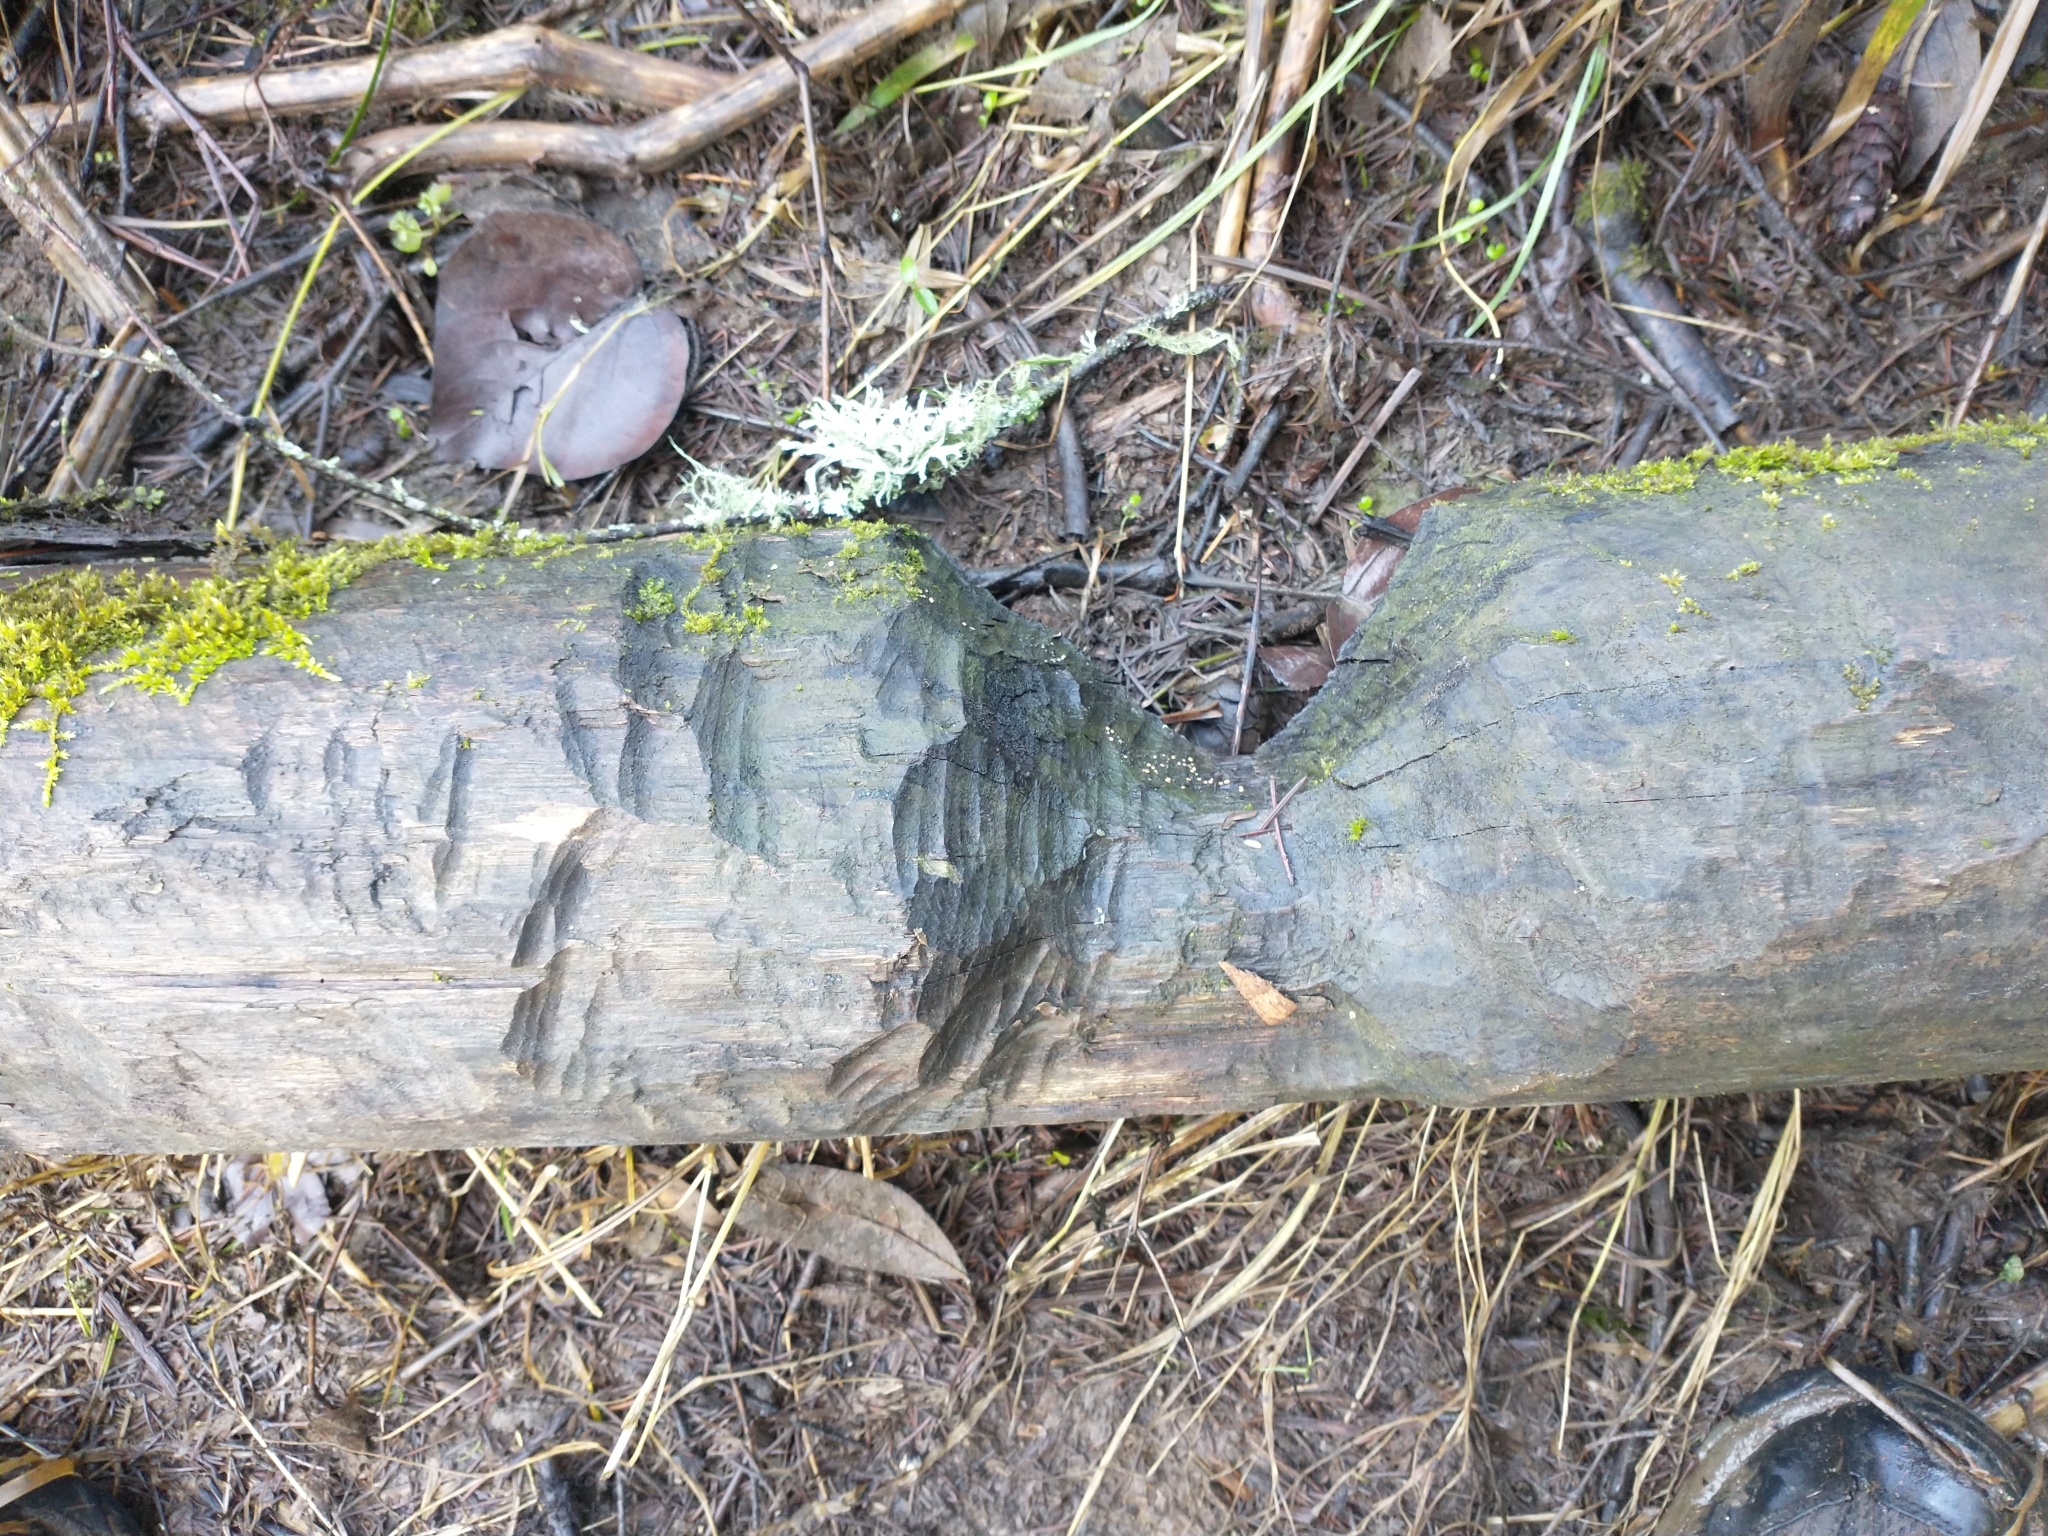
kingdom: Animalia
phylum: Chordata
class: Mammalia
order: Rodentia
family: Castoridae
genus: Castor
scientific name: Castor canadensis
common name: American beaver
